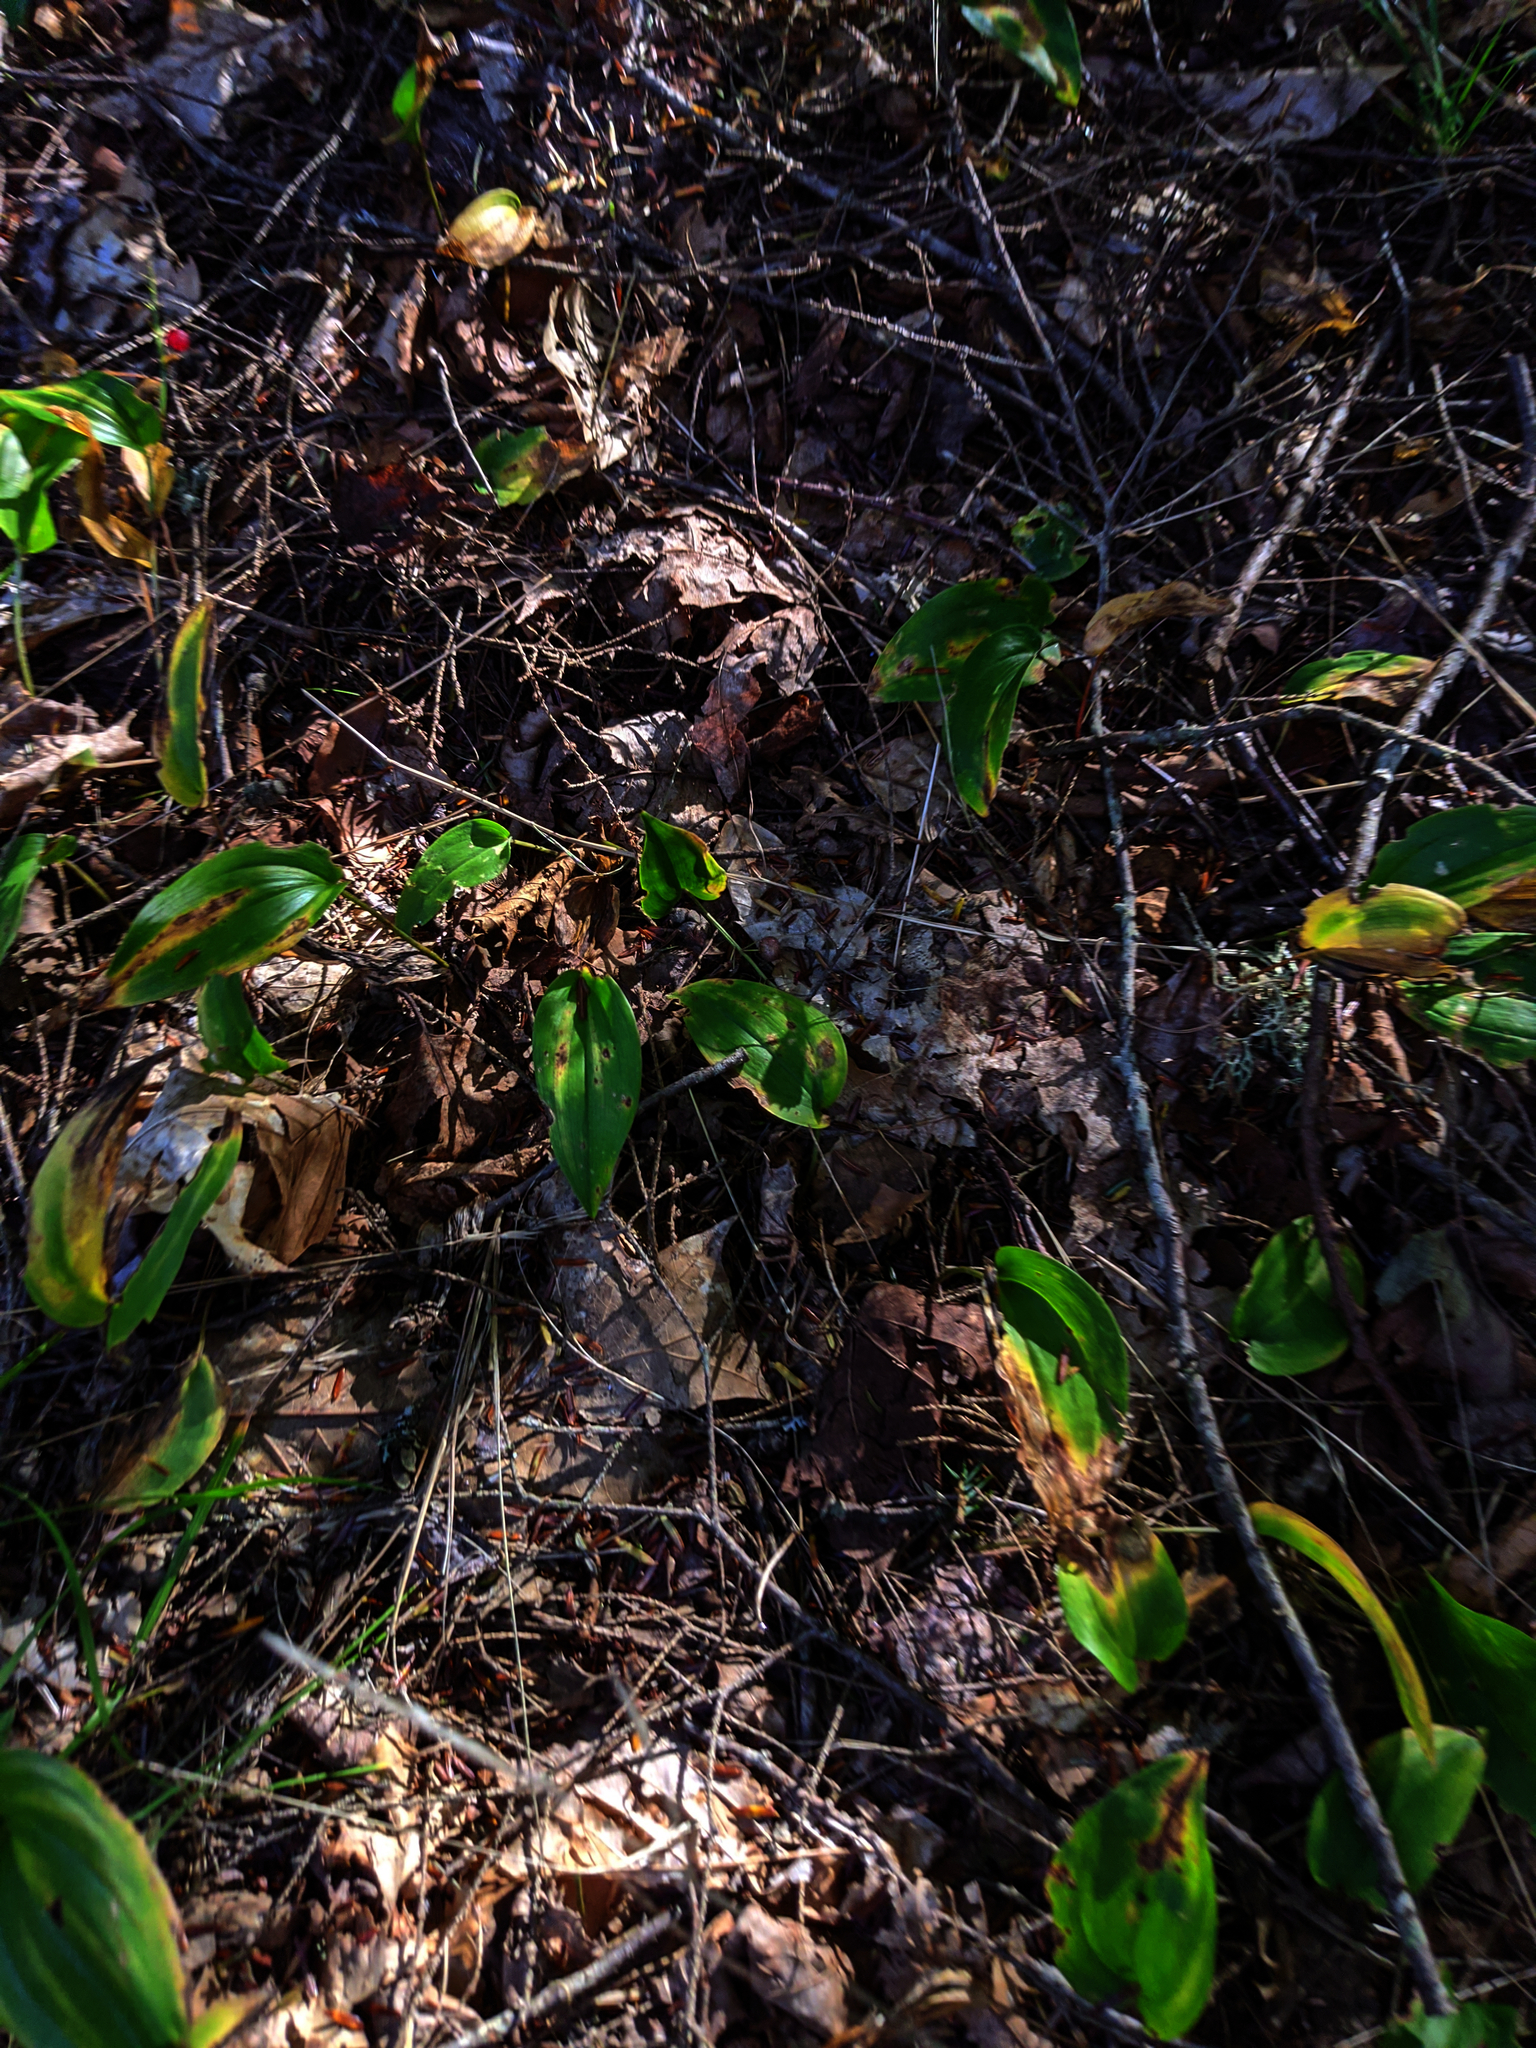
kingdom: Plantae
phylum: Tracheophyta
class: Liliopsida
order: Asparagales
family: Asparagaceae
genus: Maianthemum
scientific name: Maianthemum canadense
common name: False lily-of-the-valley
